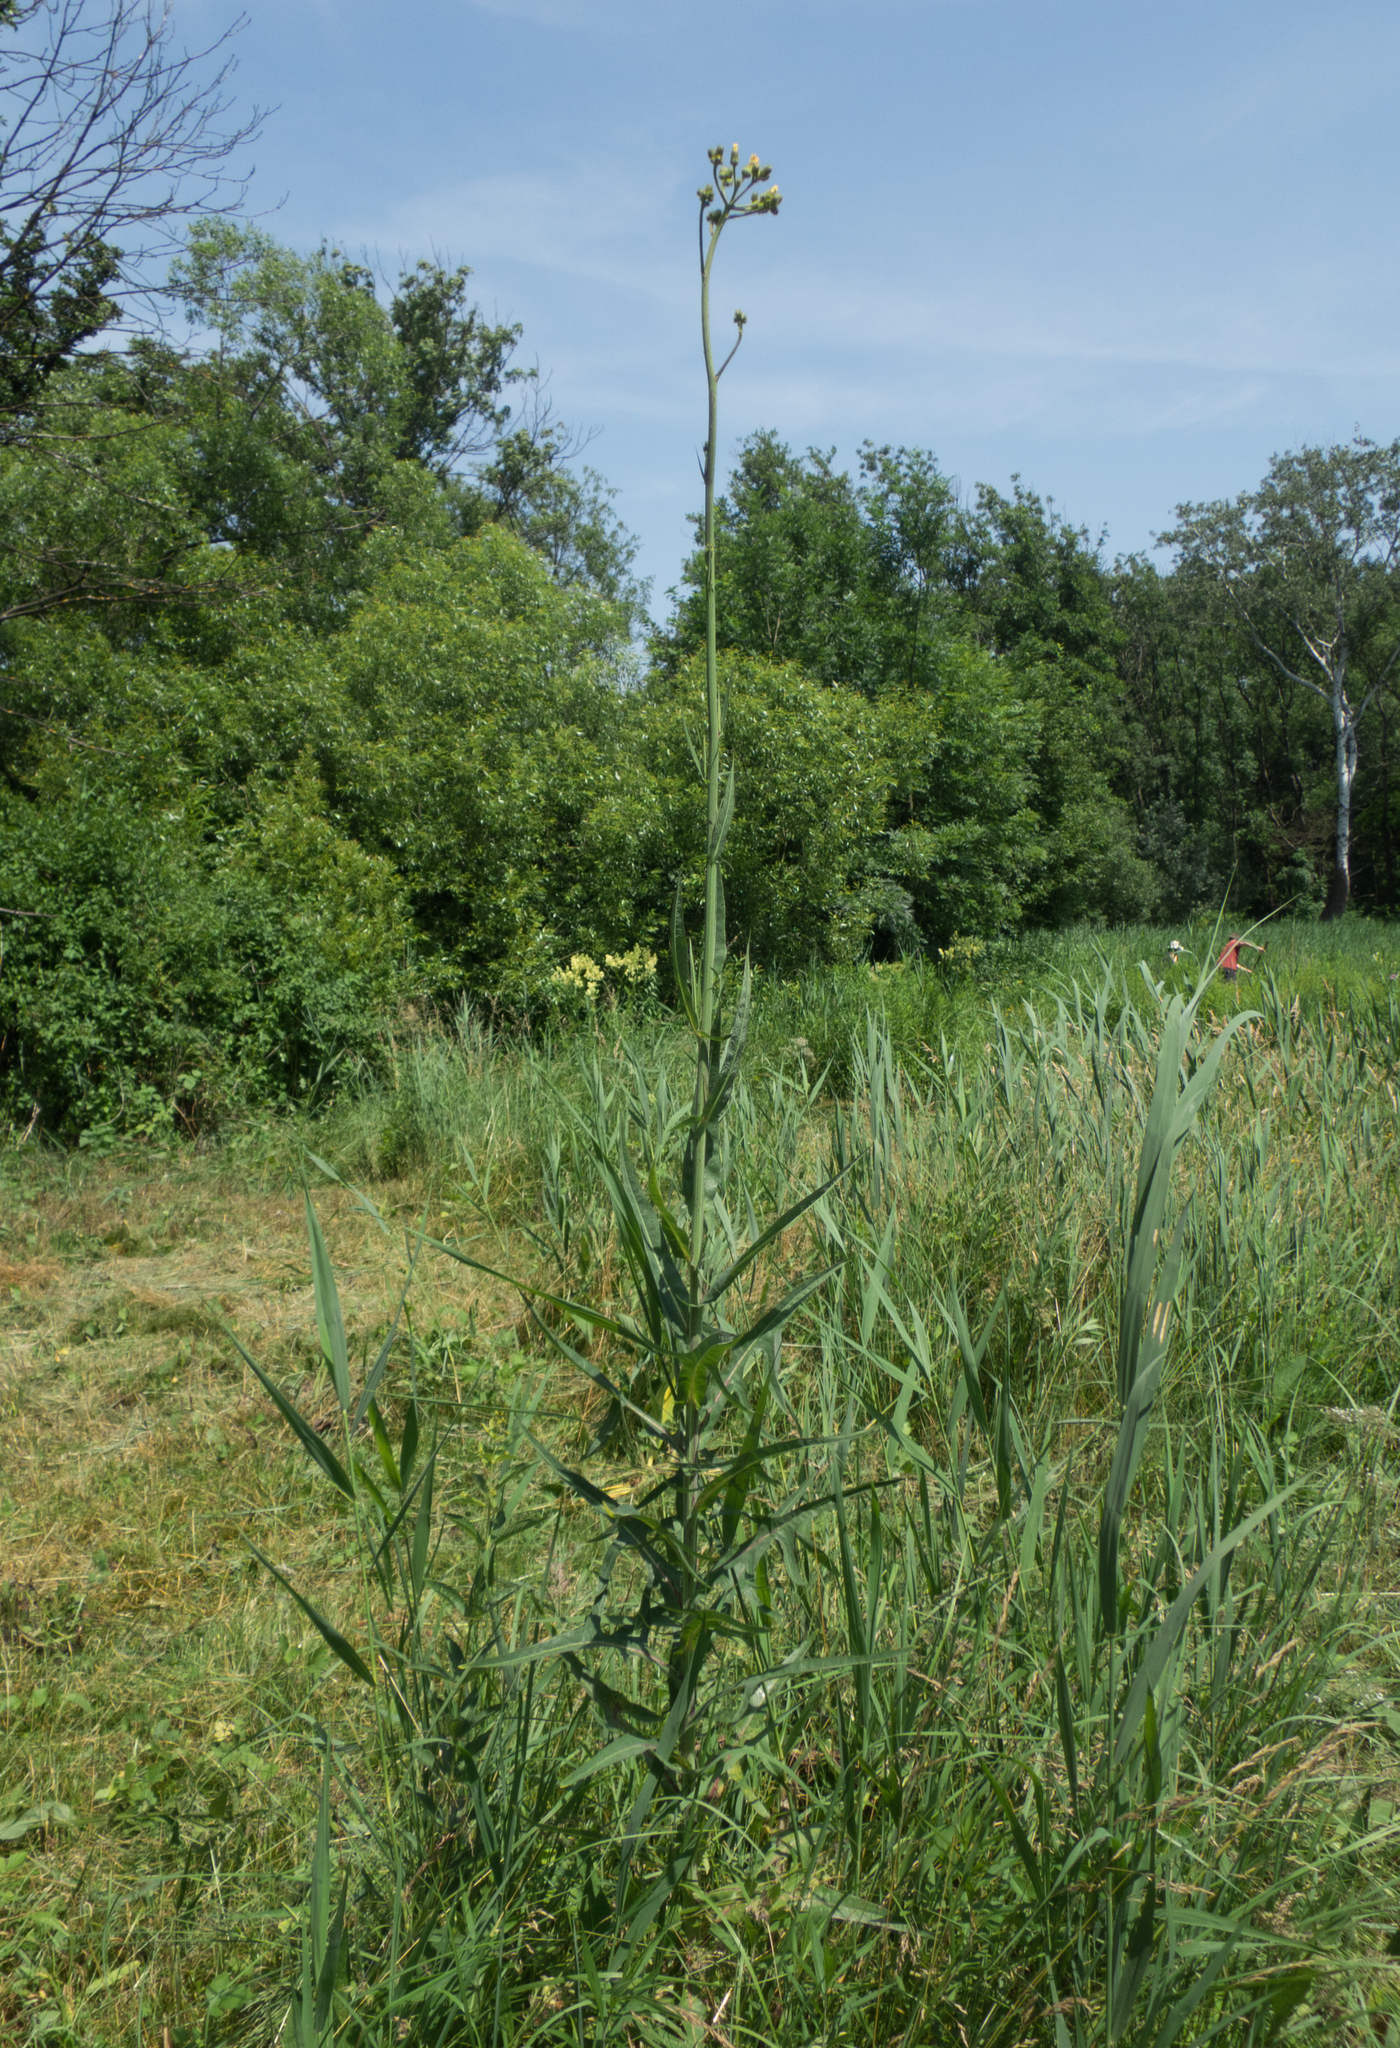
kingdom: Plantae
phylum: Tracheophyta
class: Magnoliopsida
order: Asterales
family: Asteraceae
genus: Sonchus
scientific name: Sonchus palustris
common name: Marsh sow-thistle
